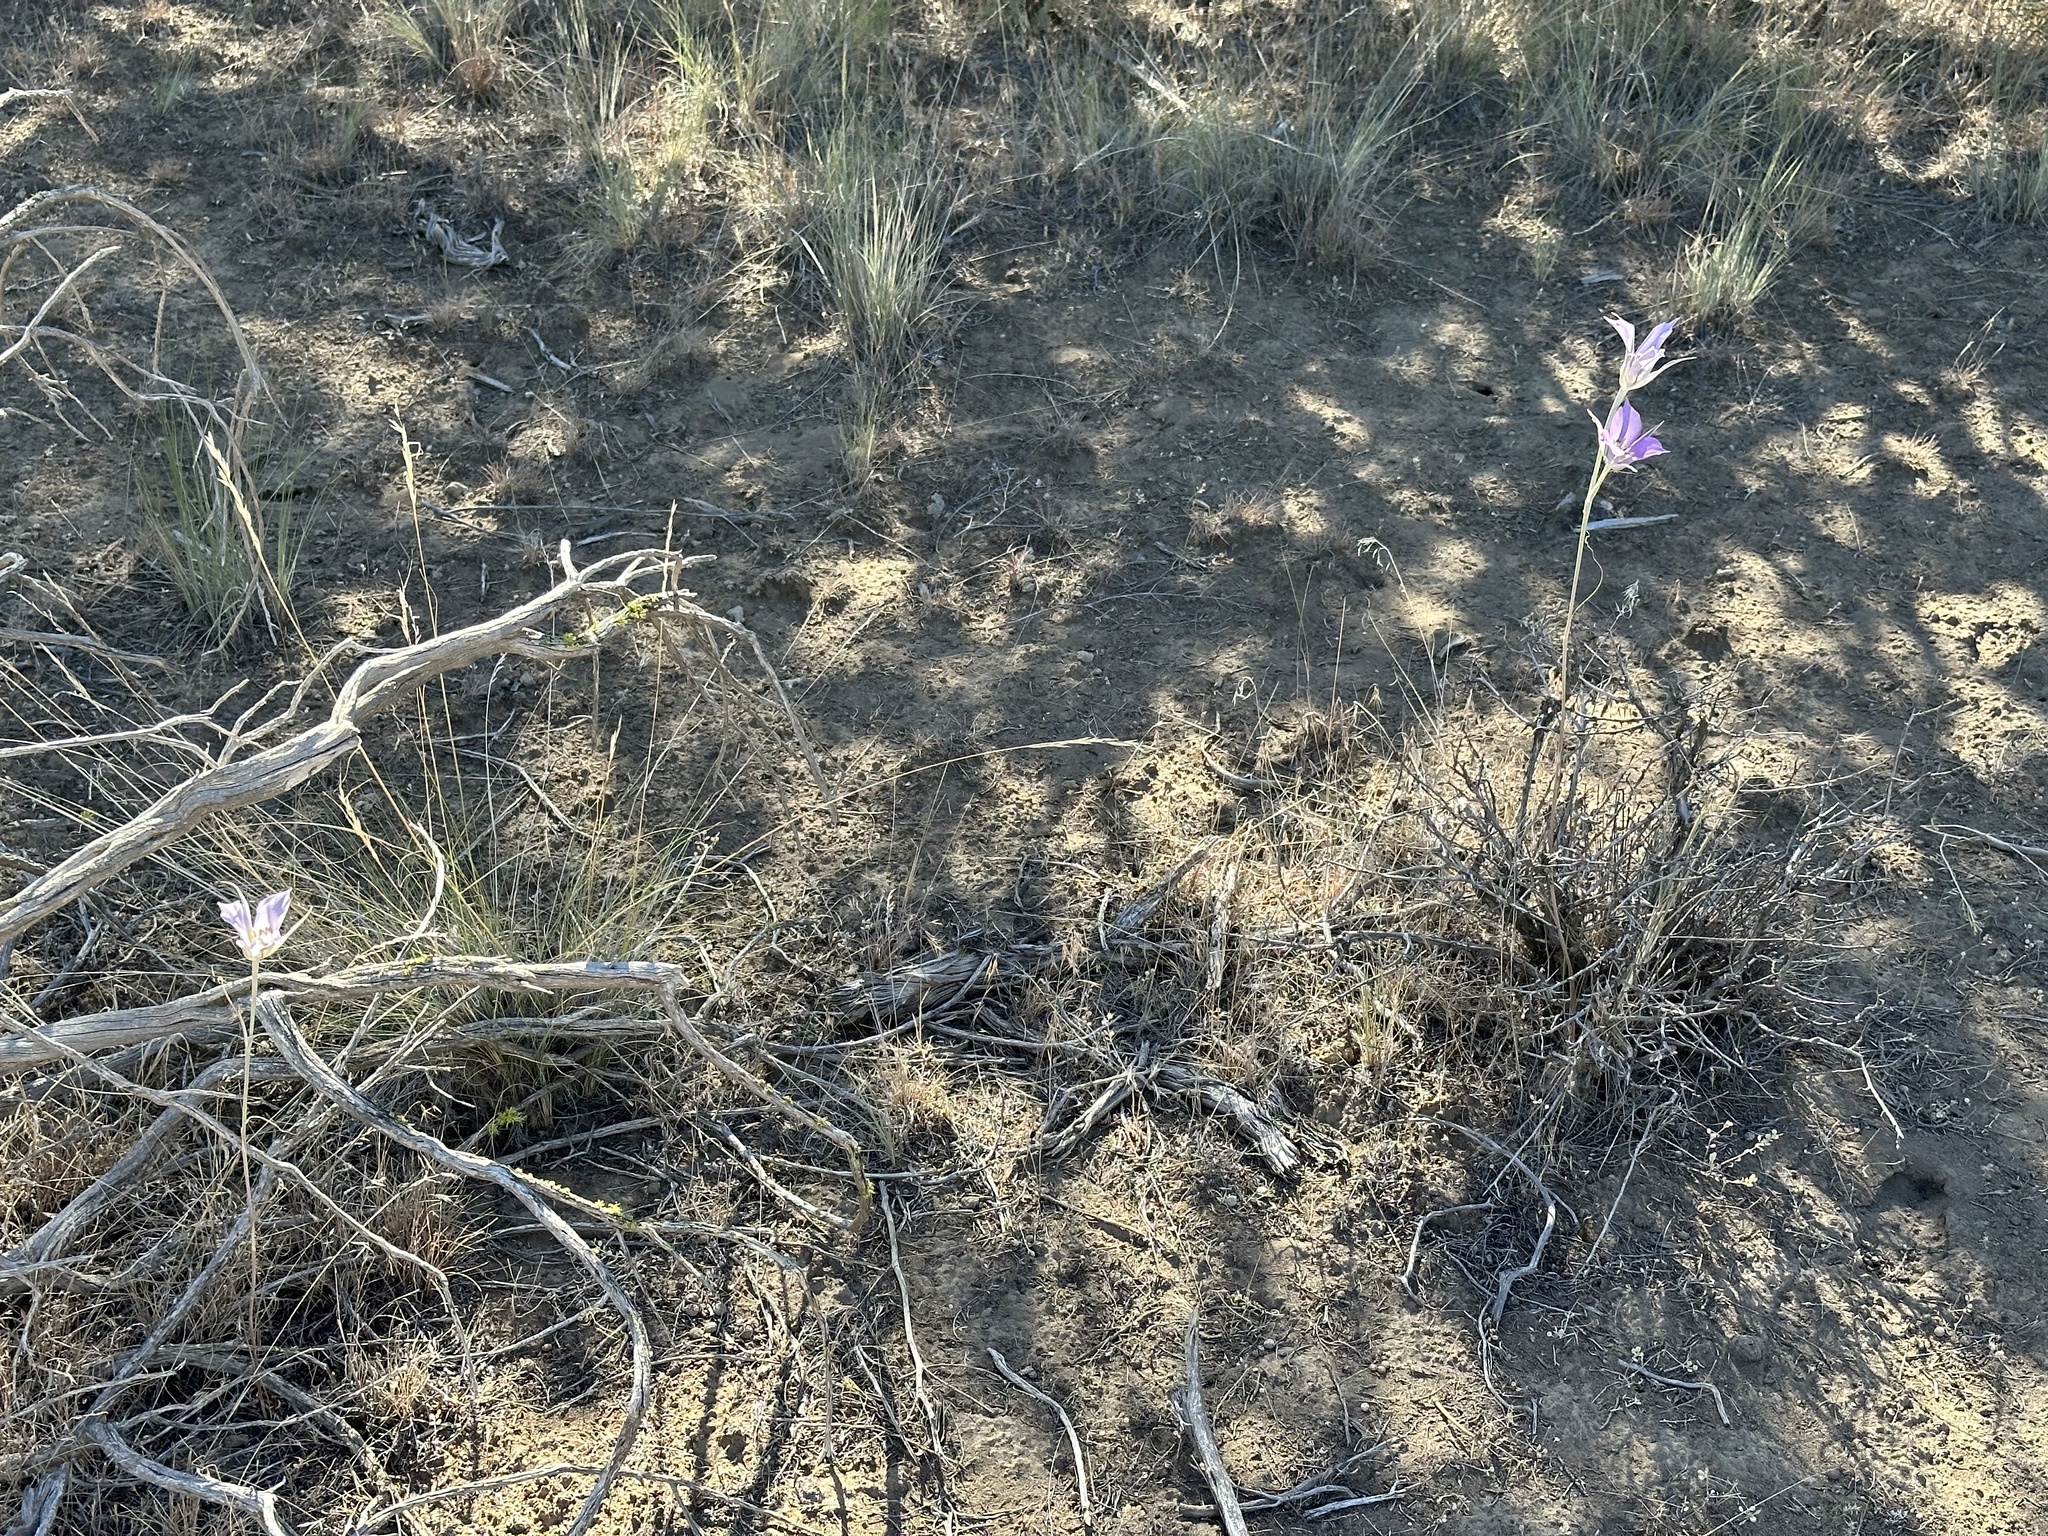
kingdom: Plantae
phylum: Tracheophyta
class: Liliopsida
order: Liliales
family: Liliaceae
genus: Calochortus
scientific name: Calochortus macrocarpus
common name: Green-band mariposa lily
